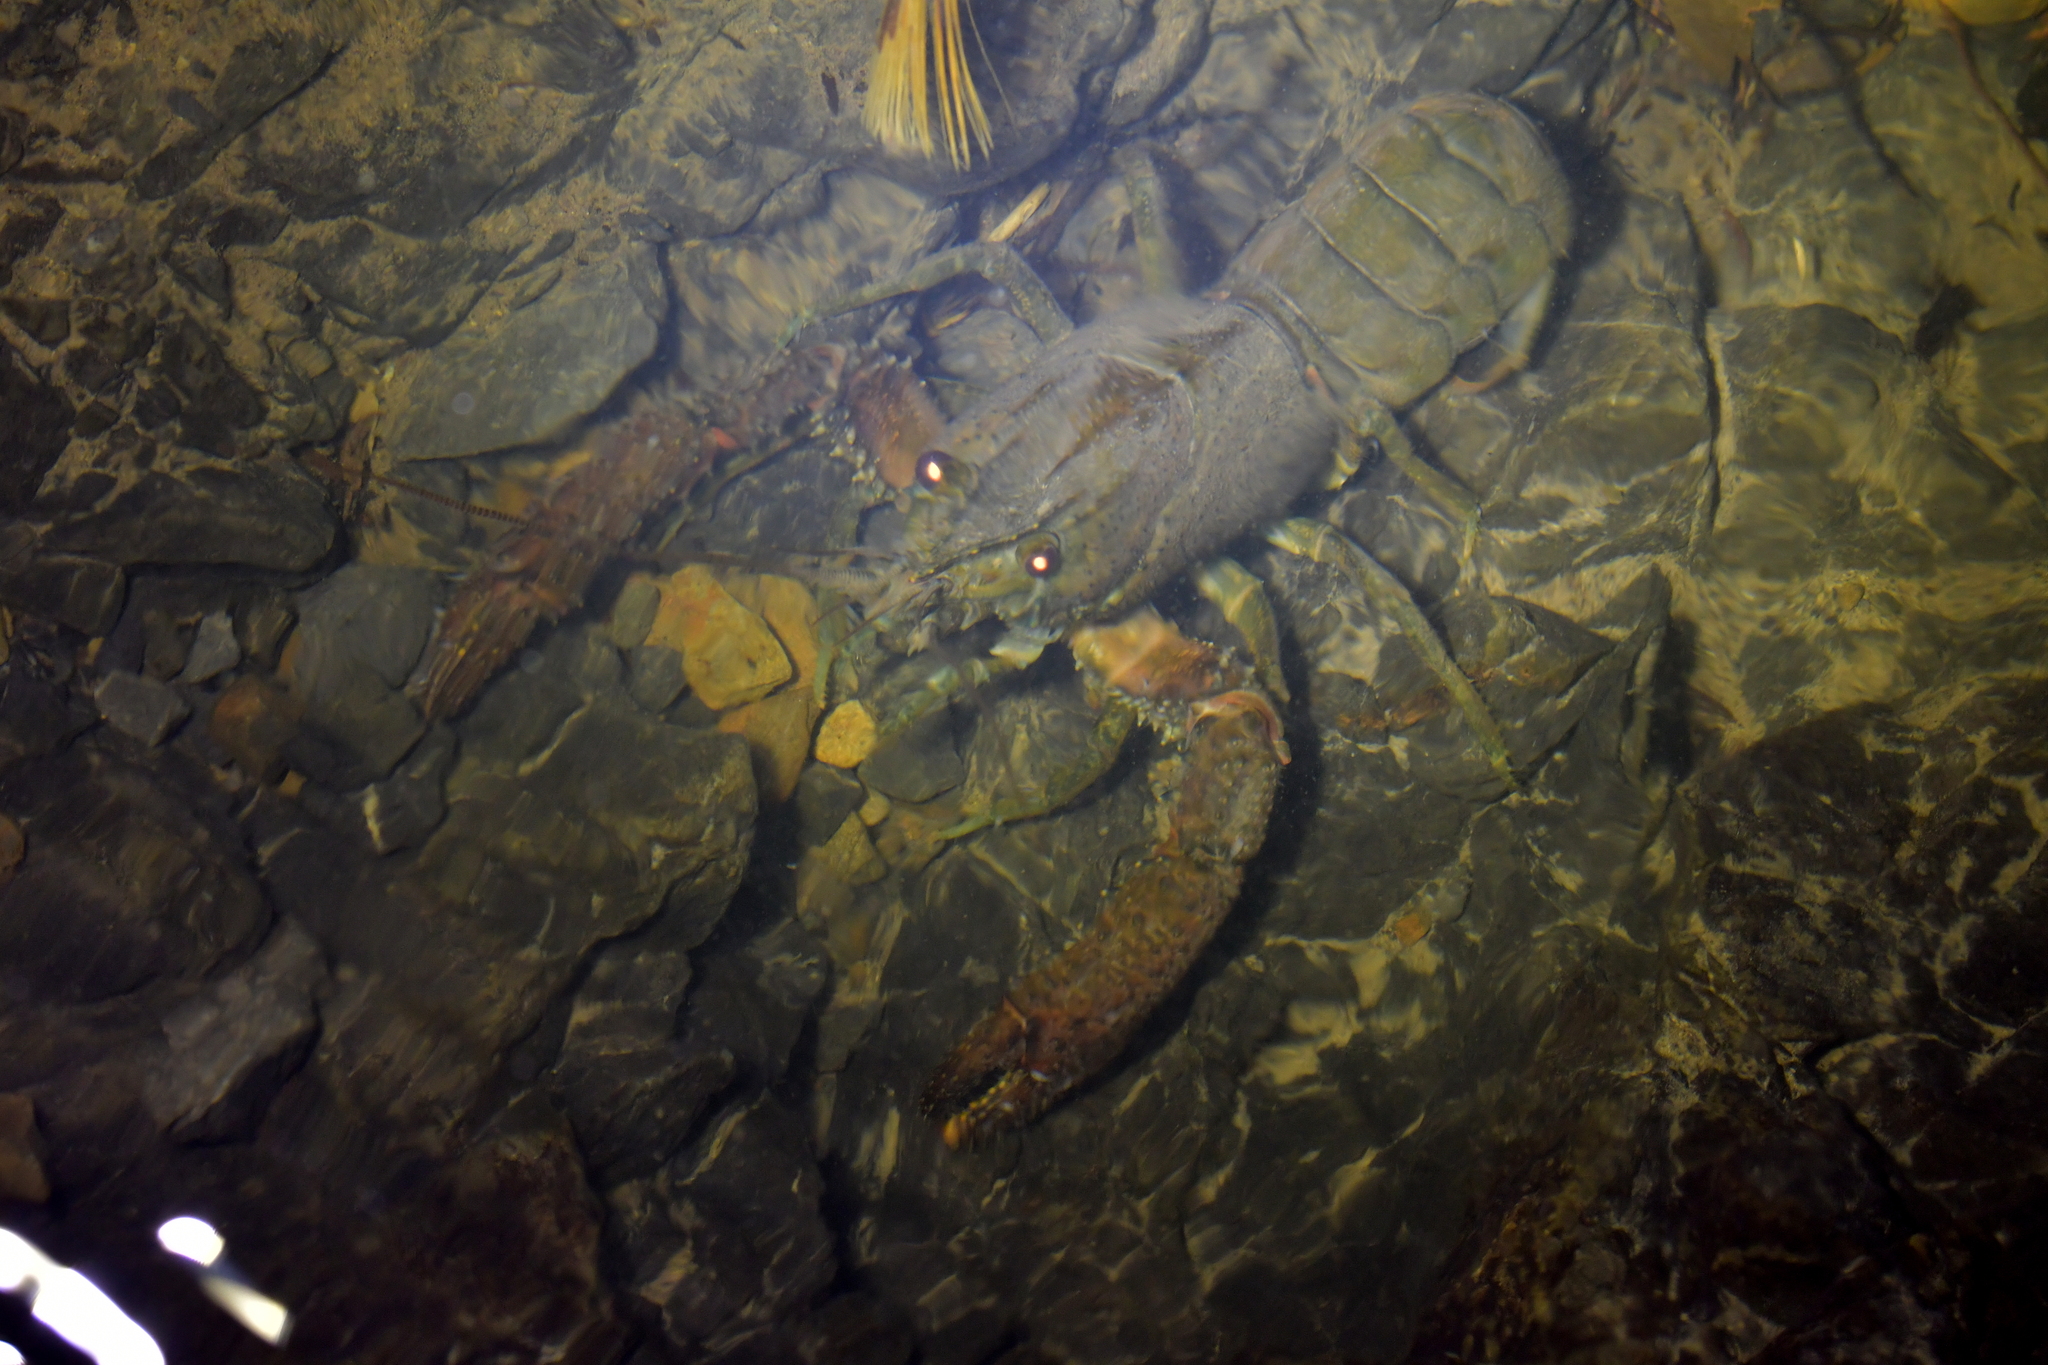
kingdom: Animalia
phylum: Arthropoda
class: Malacostraca
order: Decapoda
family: Parastacidae
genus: Paranephrops
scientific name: Paranephrops planifrons
